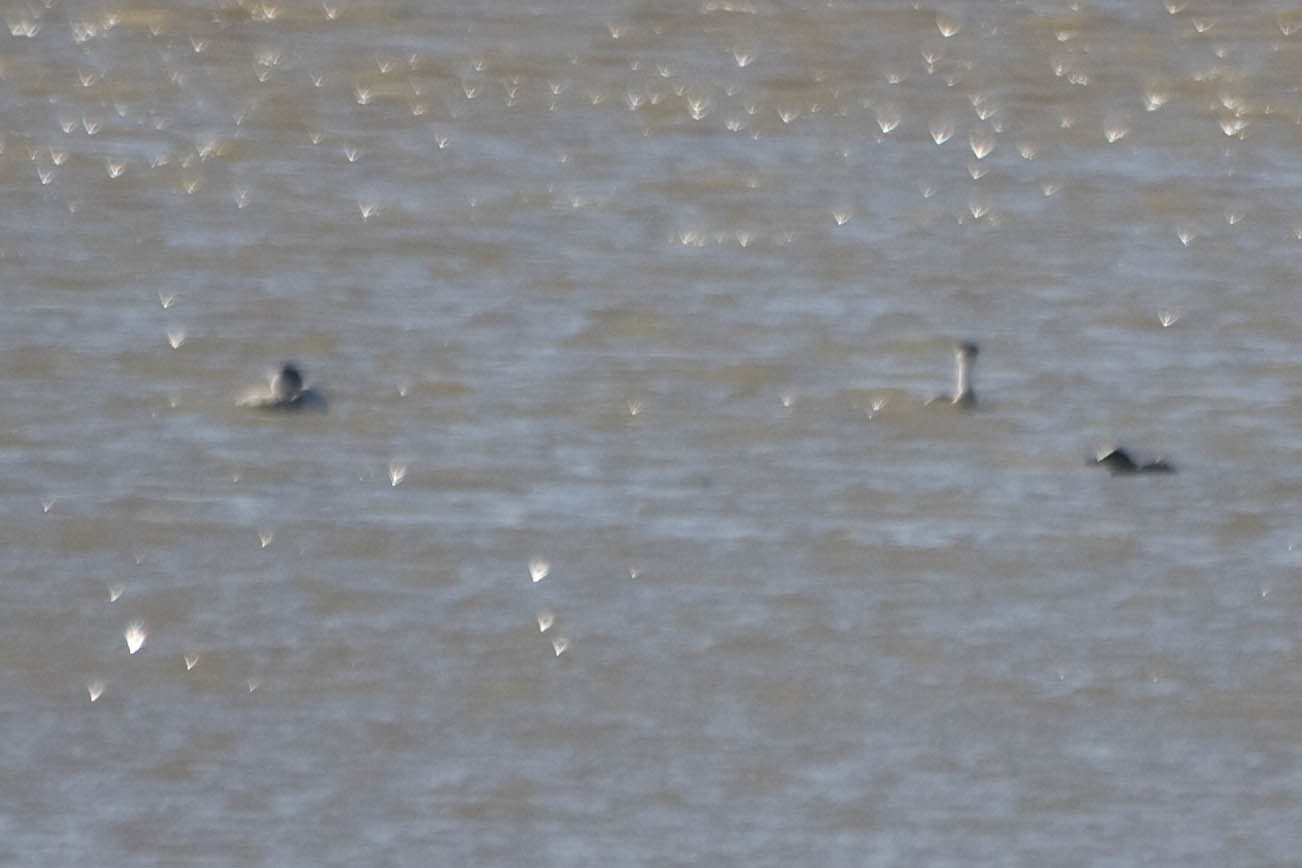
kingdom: Animalia
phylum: Chordata
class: Aves
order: Podicipediformes
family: Podicipedidae
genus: Aechmophorus
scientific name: Aechmophorus clarkii
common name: Clark's grebe
